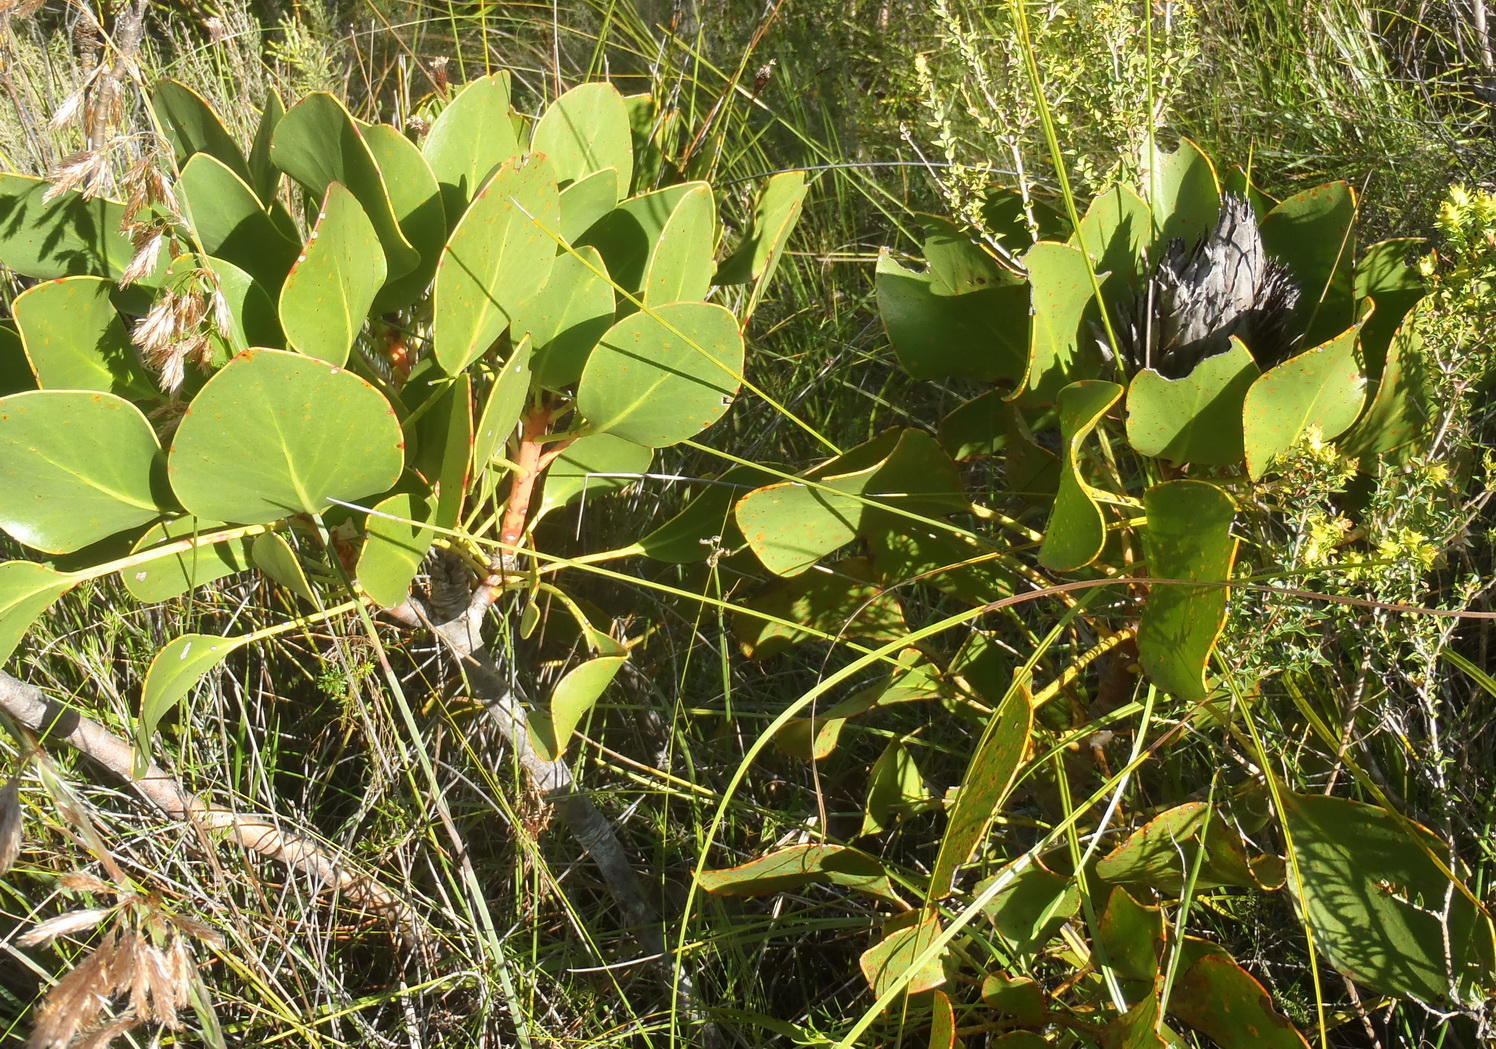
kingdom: Plantae
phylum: Tracheophyta
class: Magnoliopsida
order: Proteales
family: Proteaceae
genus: Protea
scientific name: Protea cynaroides
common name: King protea
